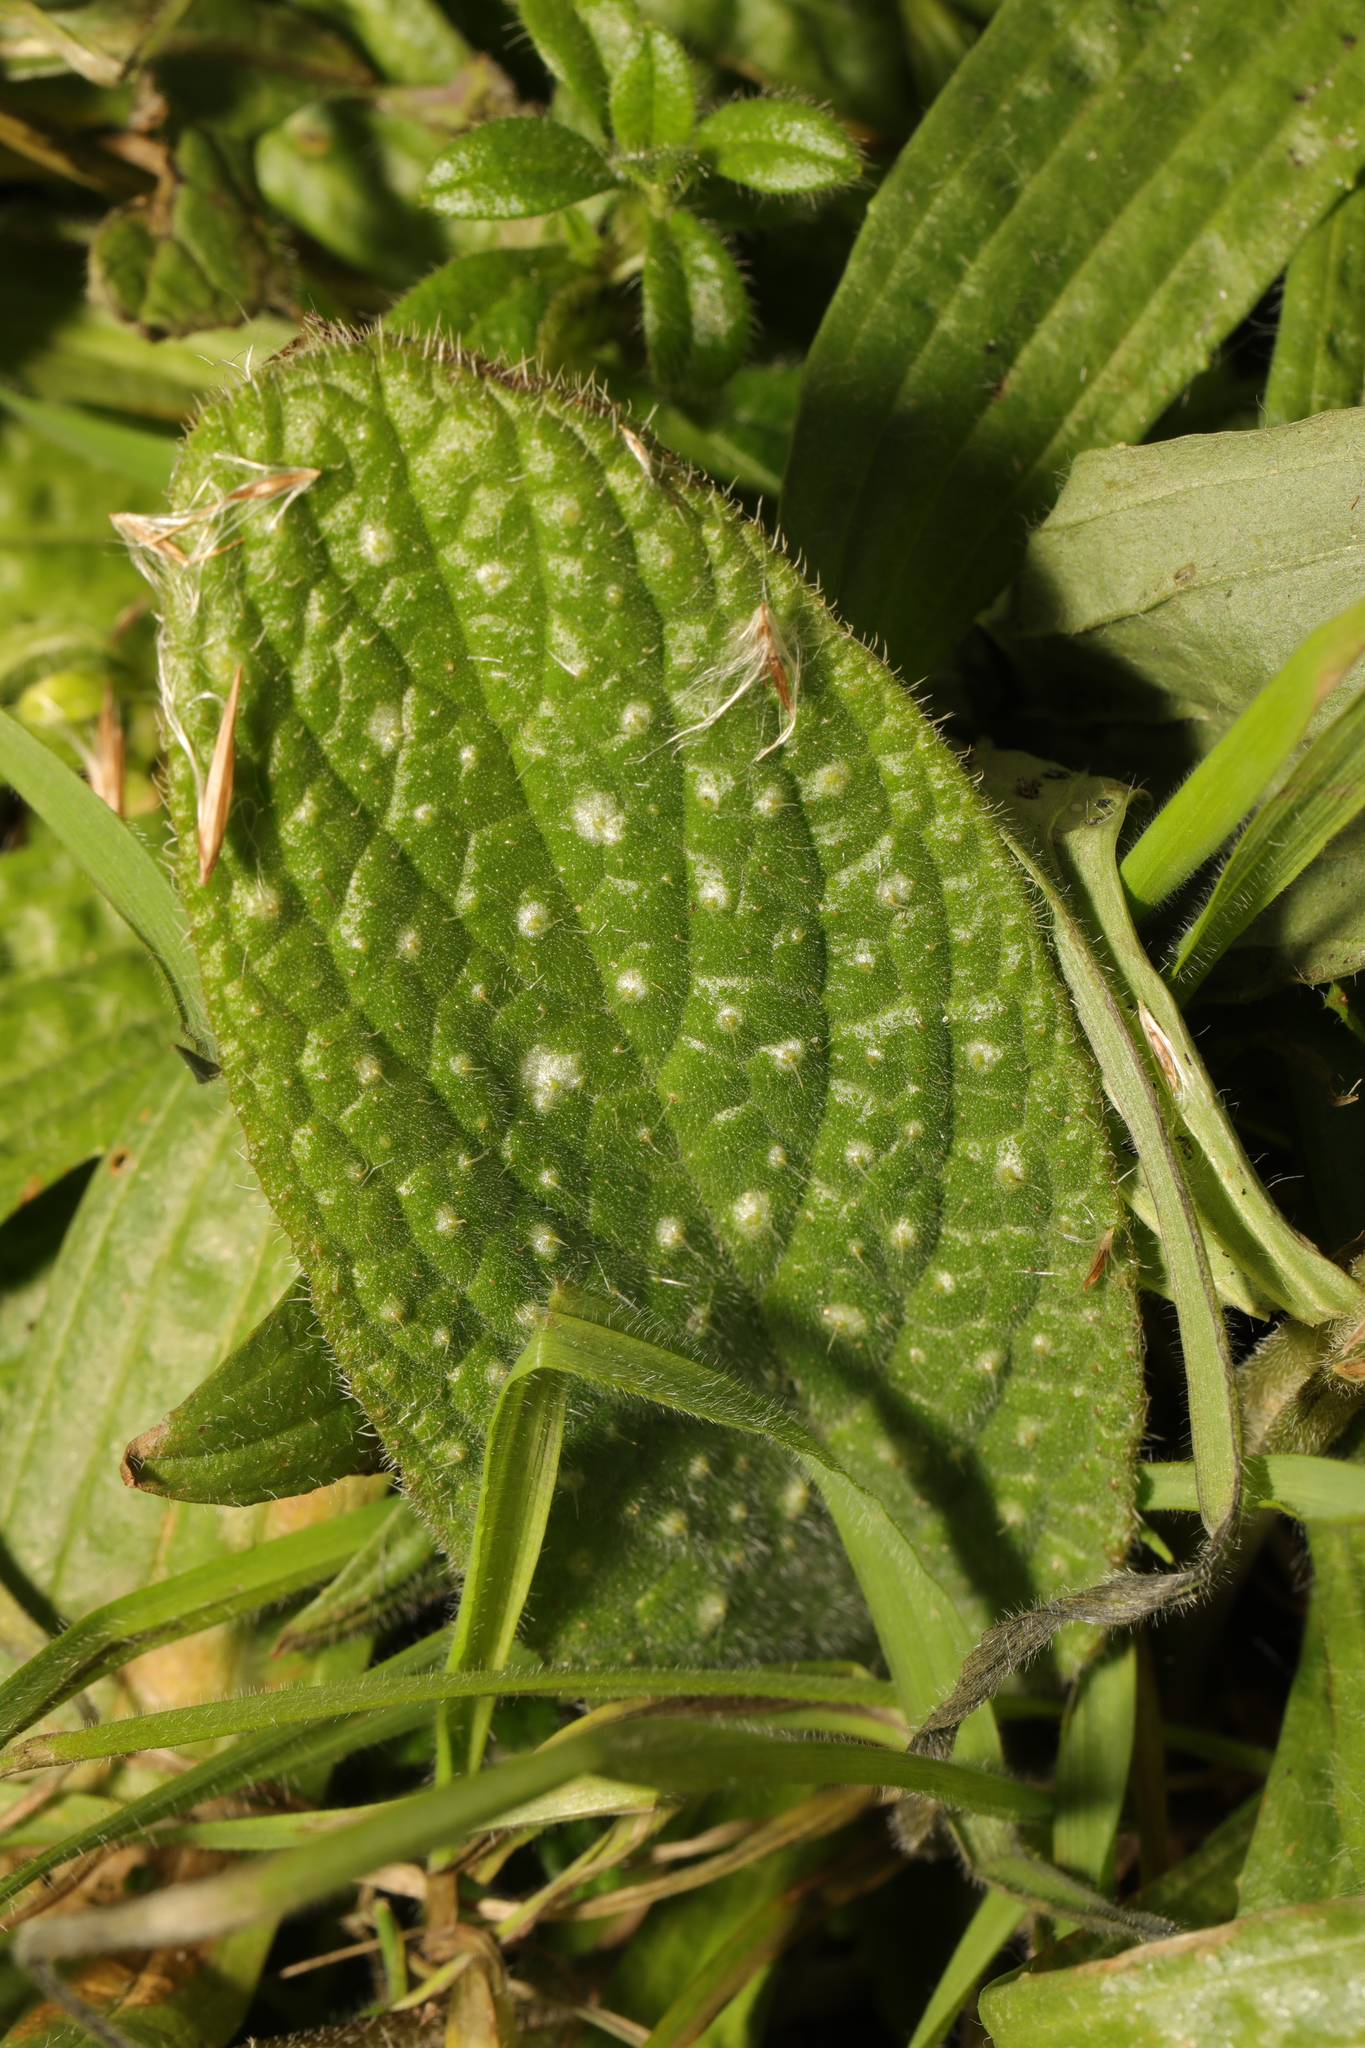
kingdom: Plantae
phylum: Tracheophyta
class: Magnoliopsida
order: Boraginales
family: Boraginaceae
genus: Pentaglottis
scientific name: Pentaglottis sempervirens
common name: Green alkanet
